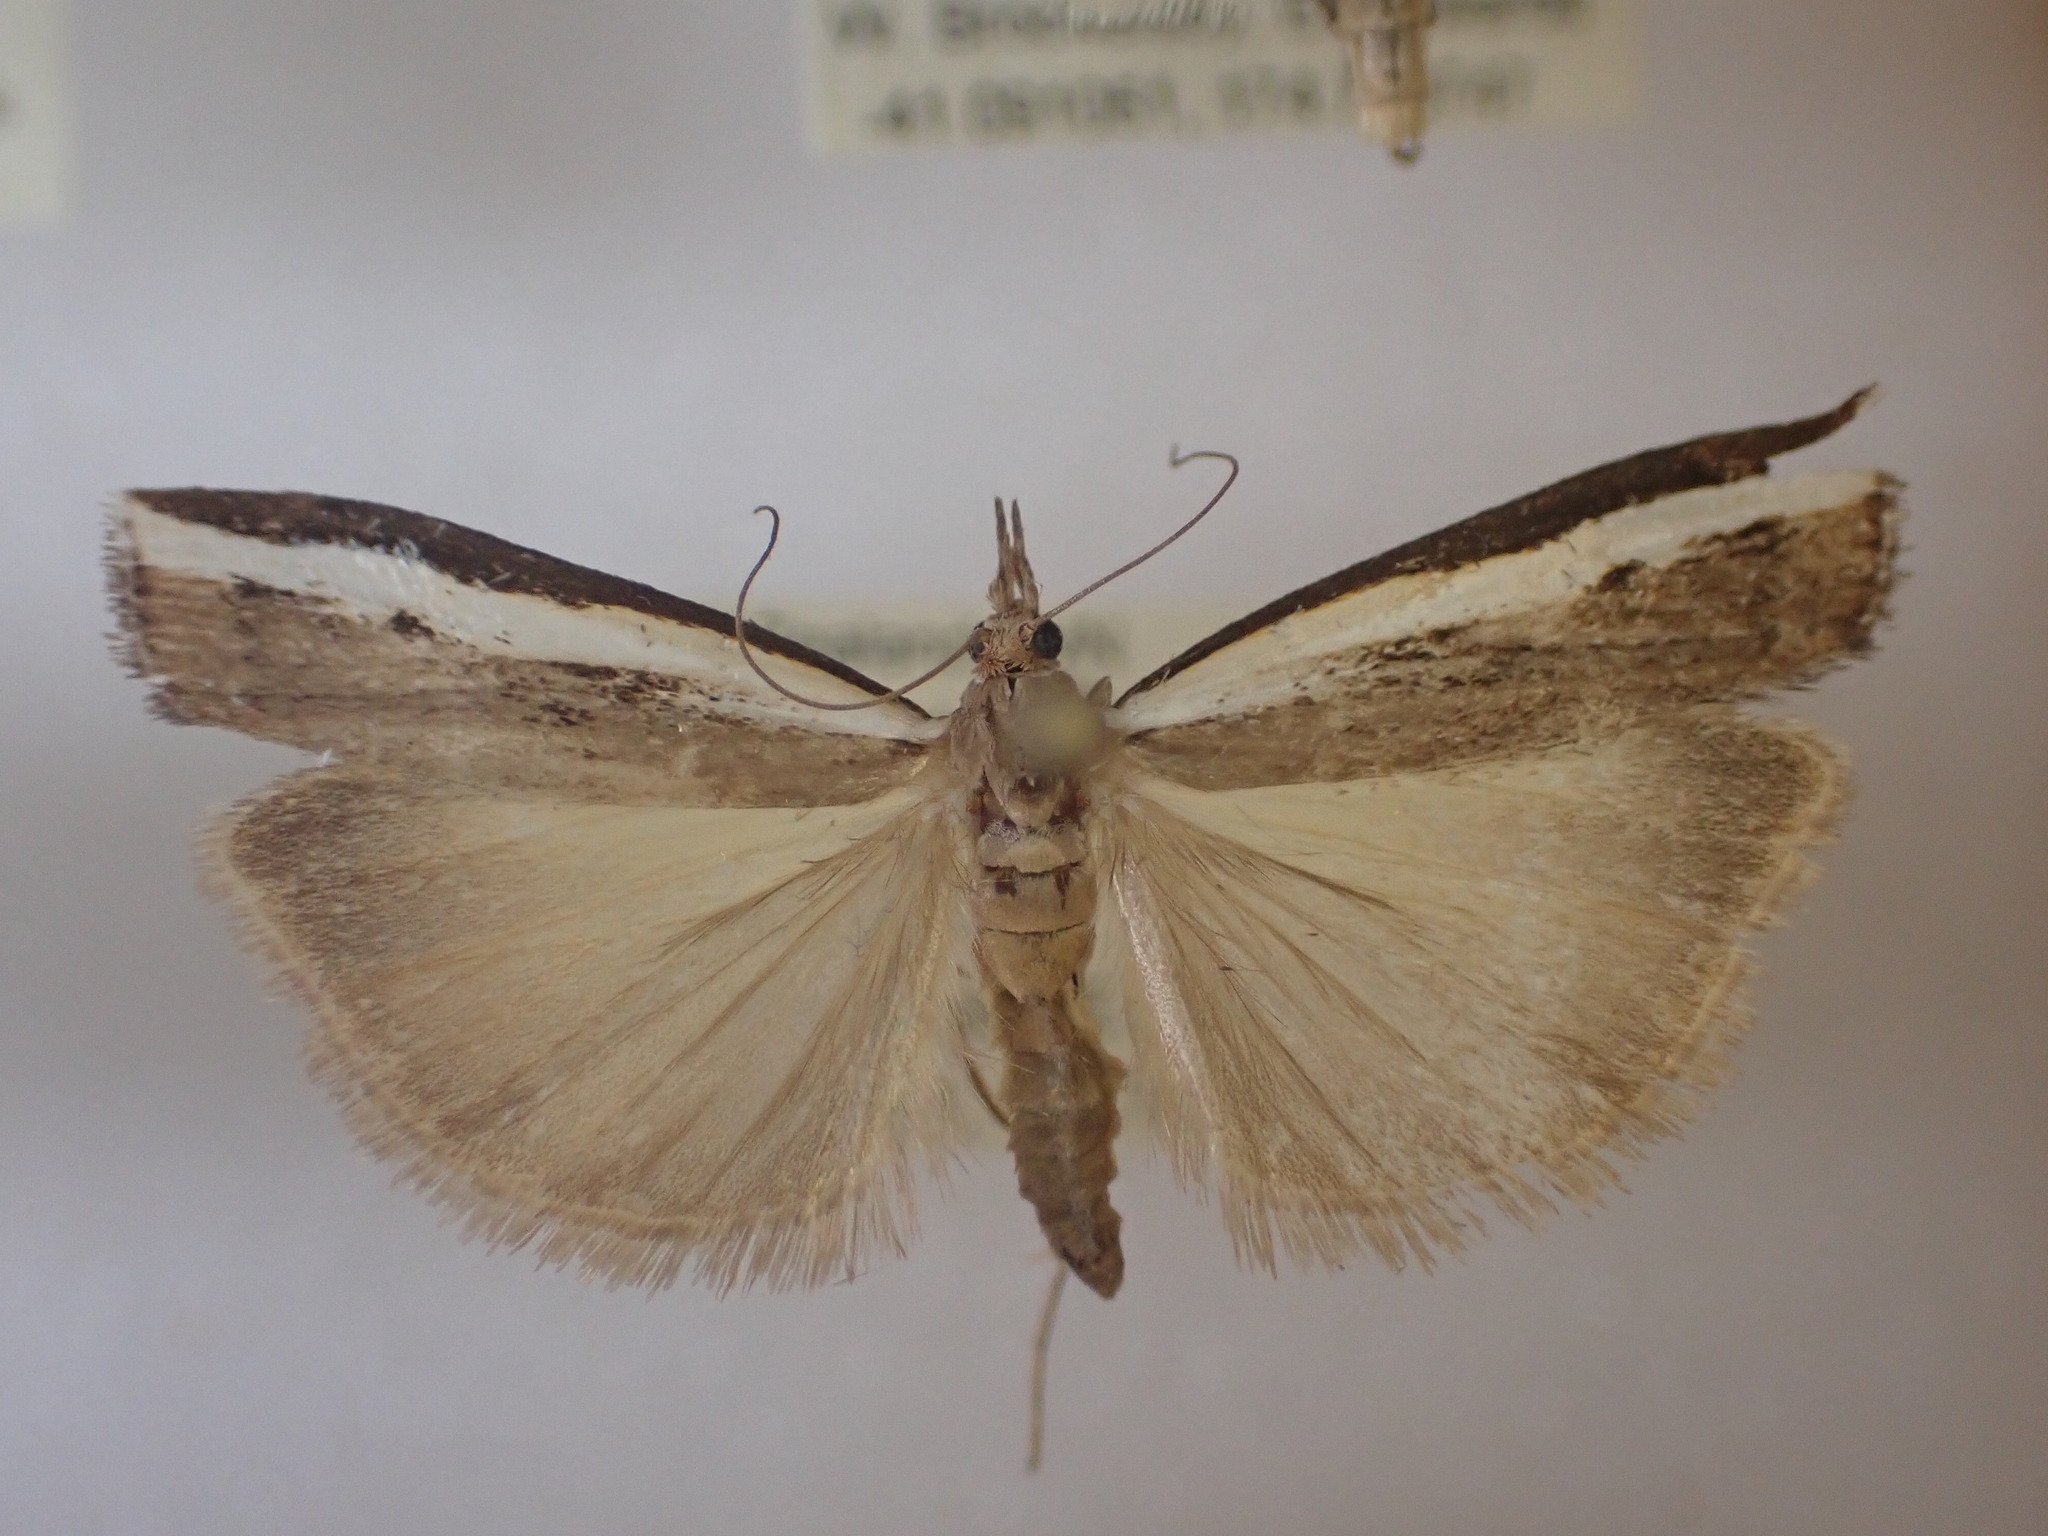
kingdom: Animalia
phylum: Arthropoda
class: Insecta
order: Lepidoptera
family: Crambidae
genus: Orocrambus
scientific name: Orocrambus flexuosellus
